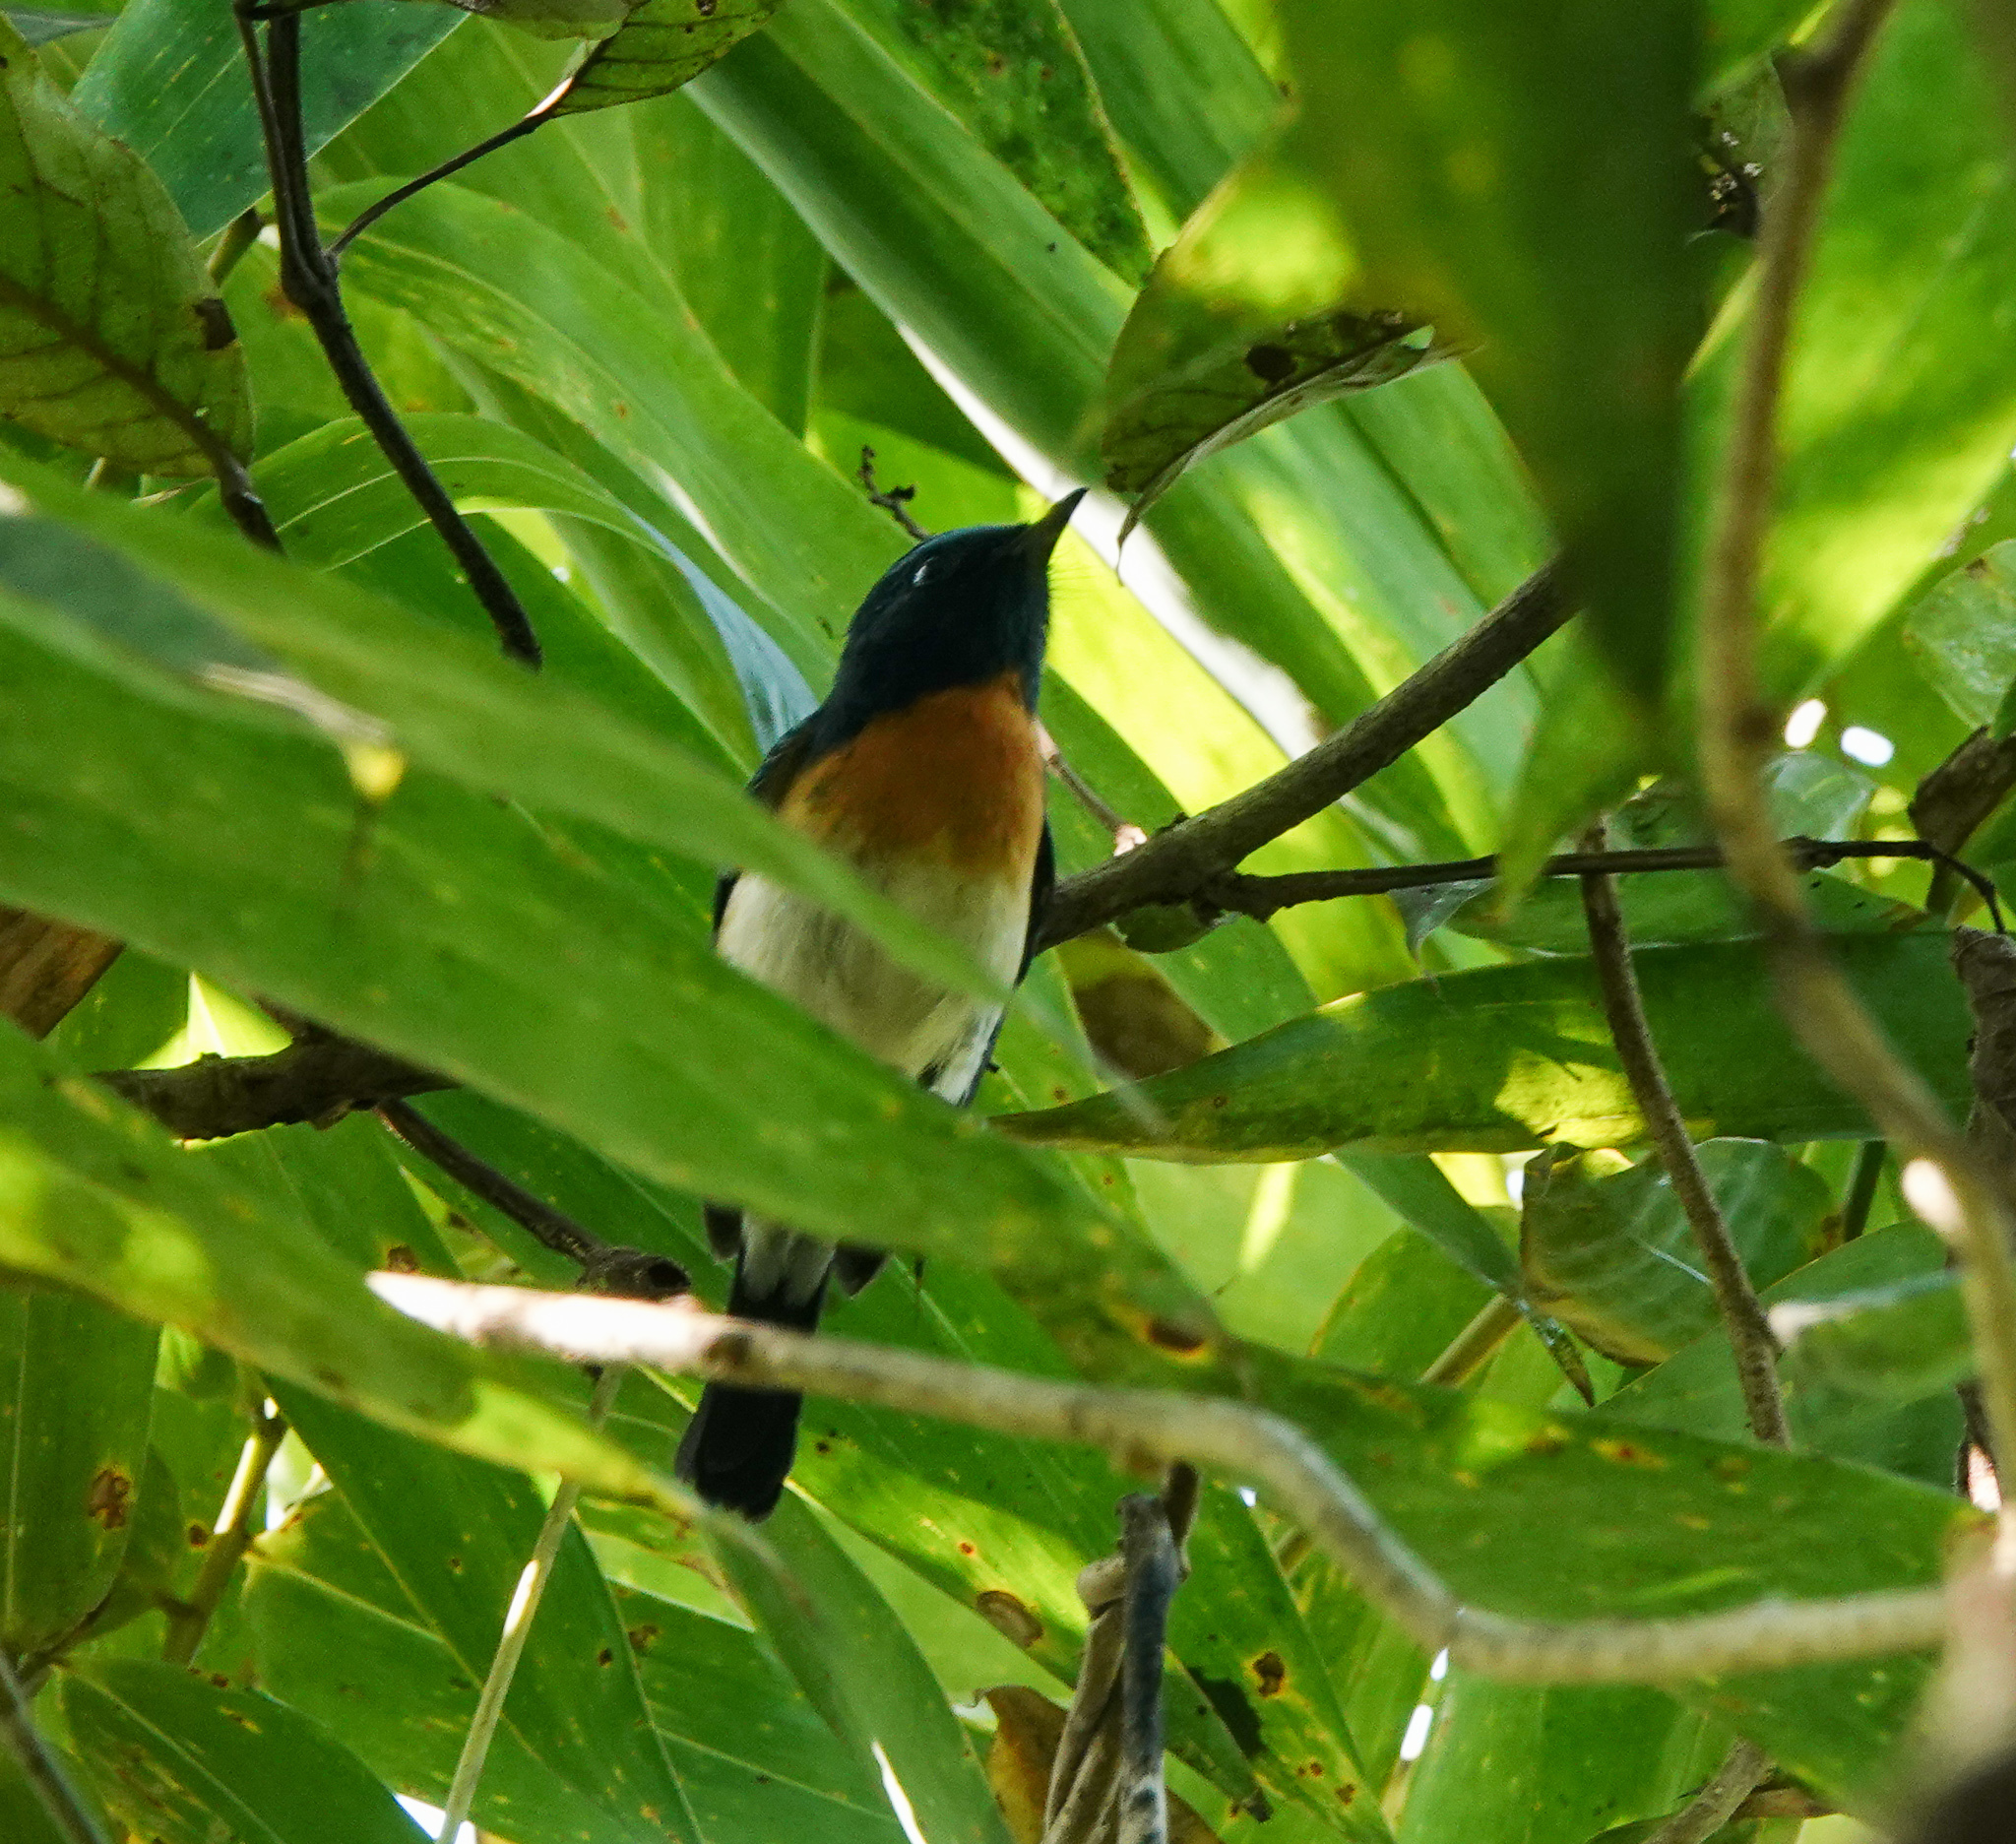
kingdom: Animalia
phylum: Chordata
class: Aves
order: Passeriformes
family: Muscicapidae
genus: Cyornis
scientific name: Cyornis rubeculoides
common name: Blue-throated blue flycatcher
